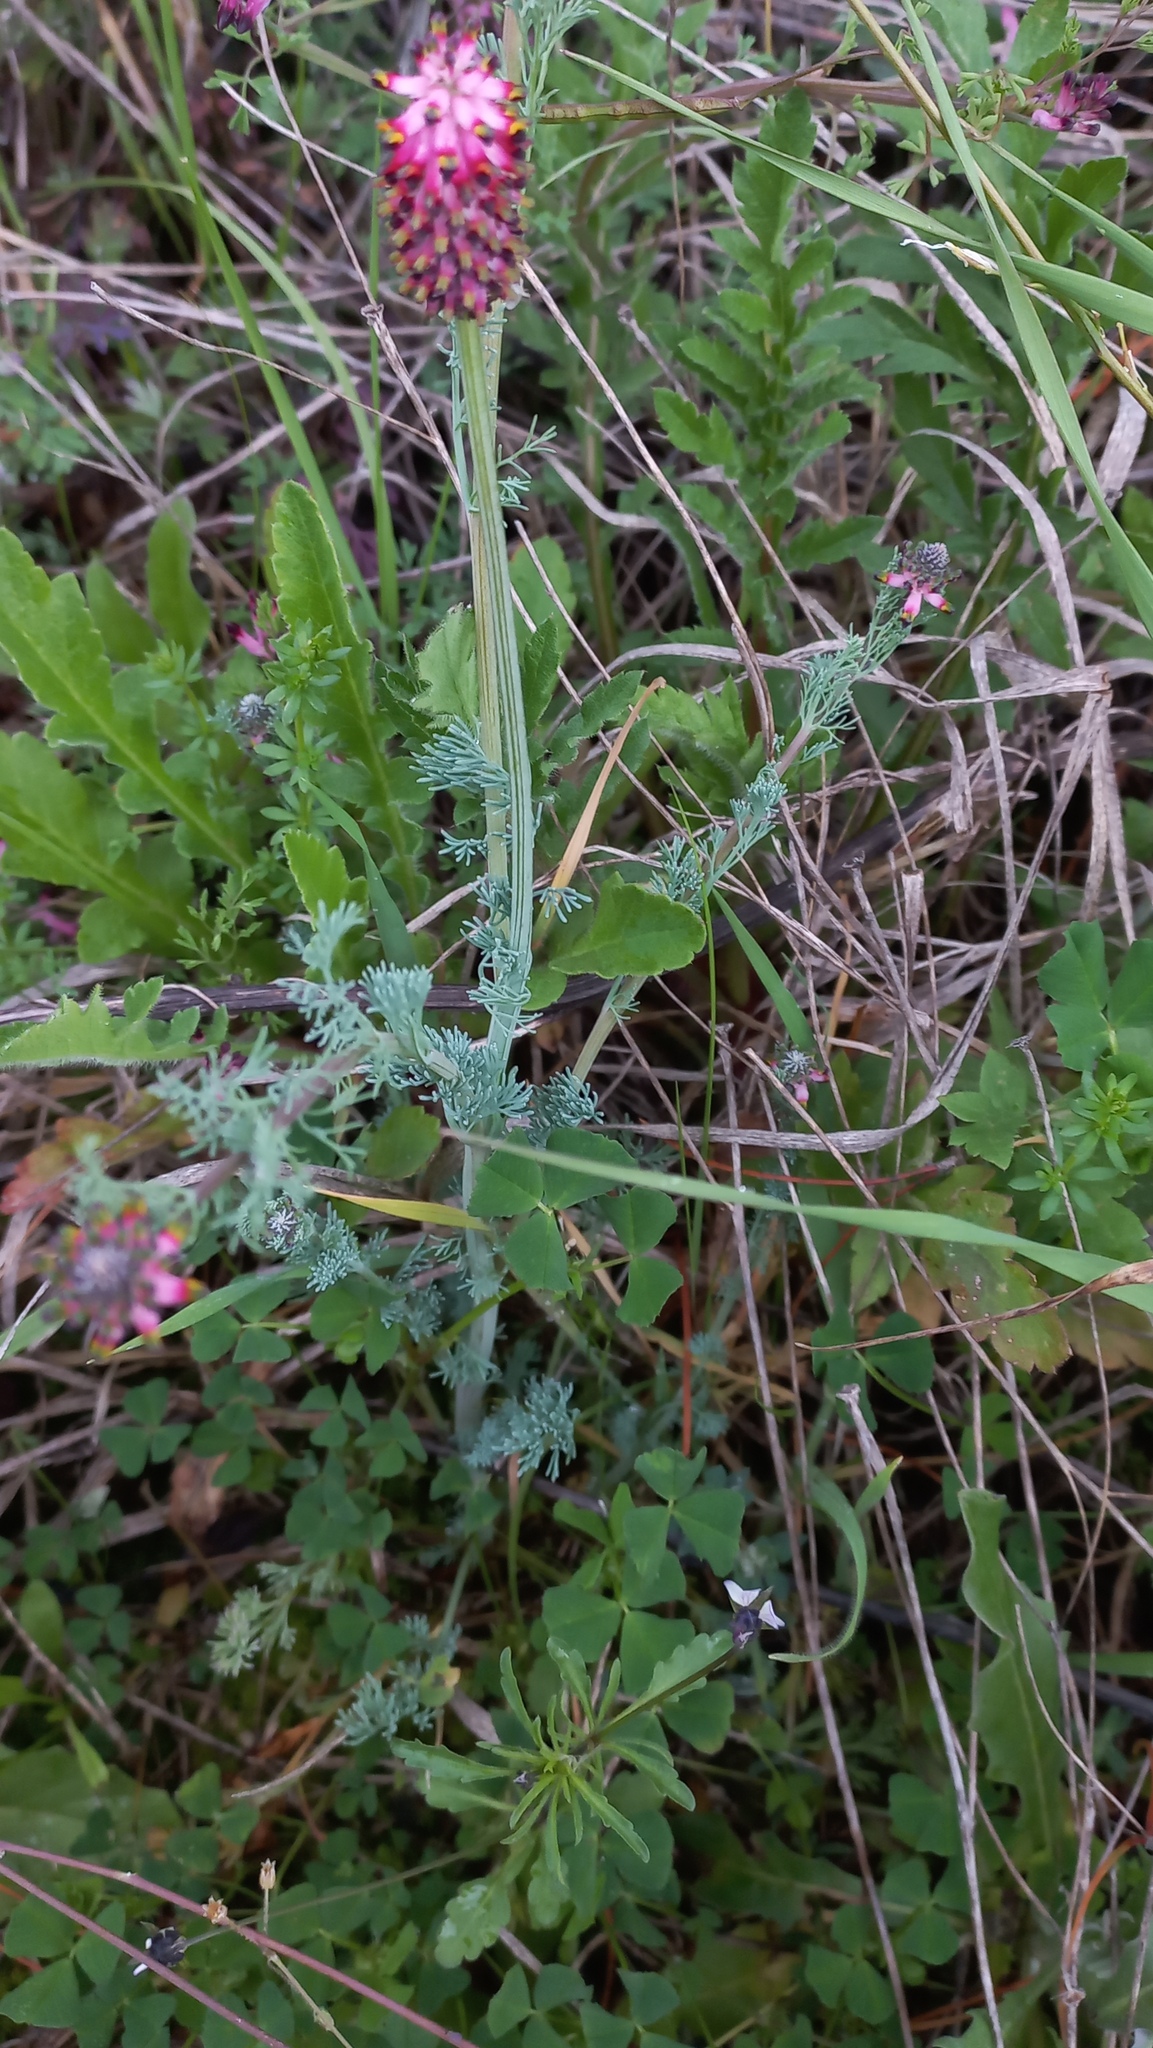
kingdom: Plantae
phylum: Tracheophyta
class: Magnoliopsida
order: Ranunculales
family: Papaveraceae
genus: Platycapnos
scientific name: Platycapnos spicata
